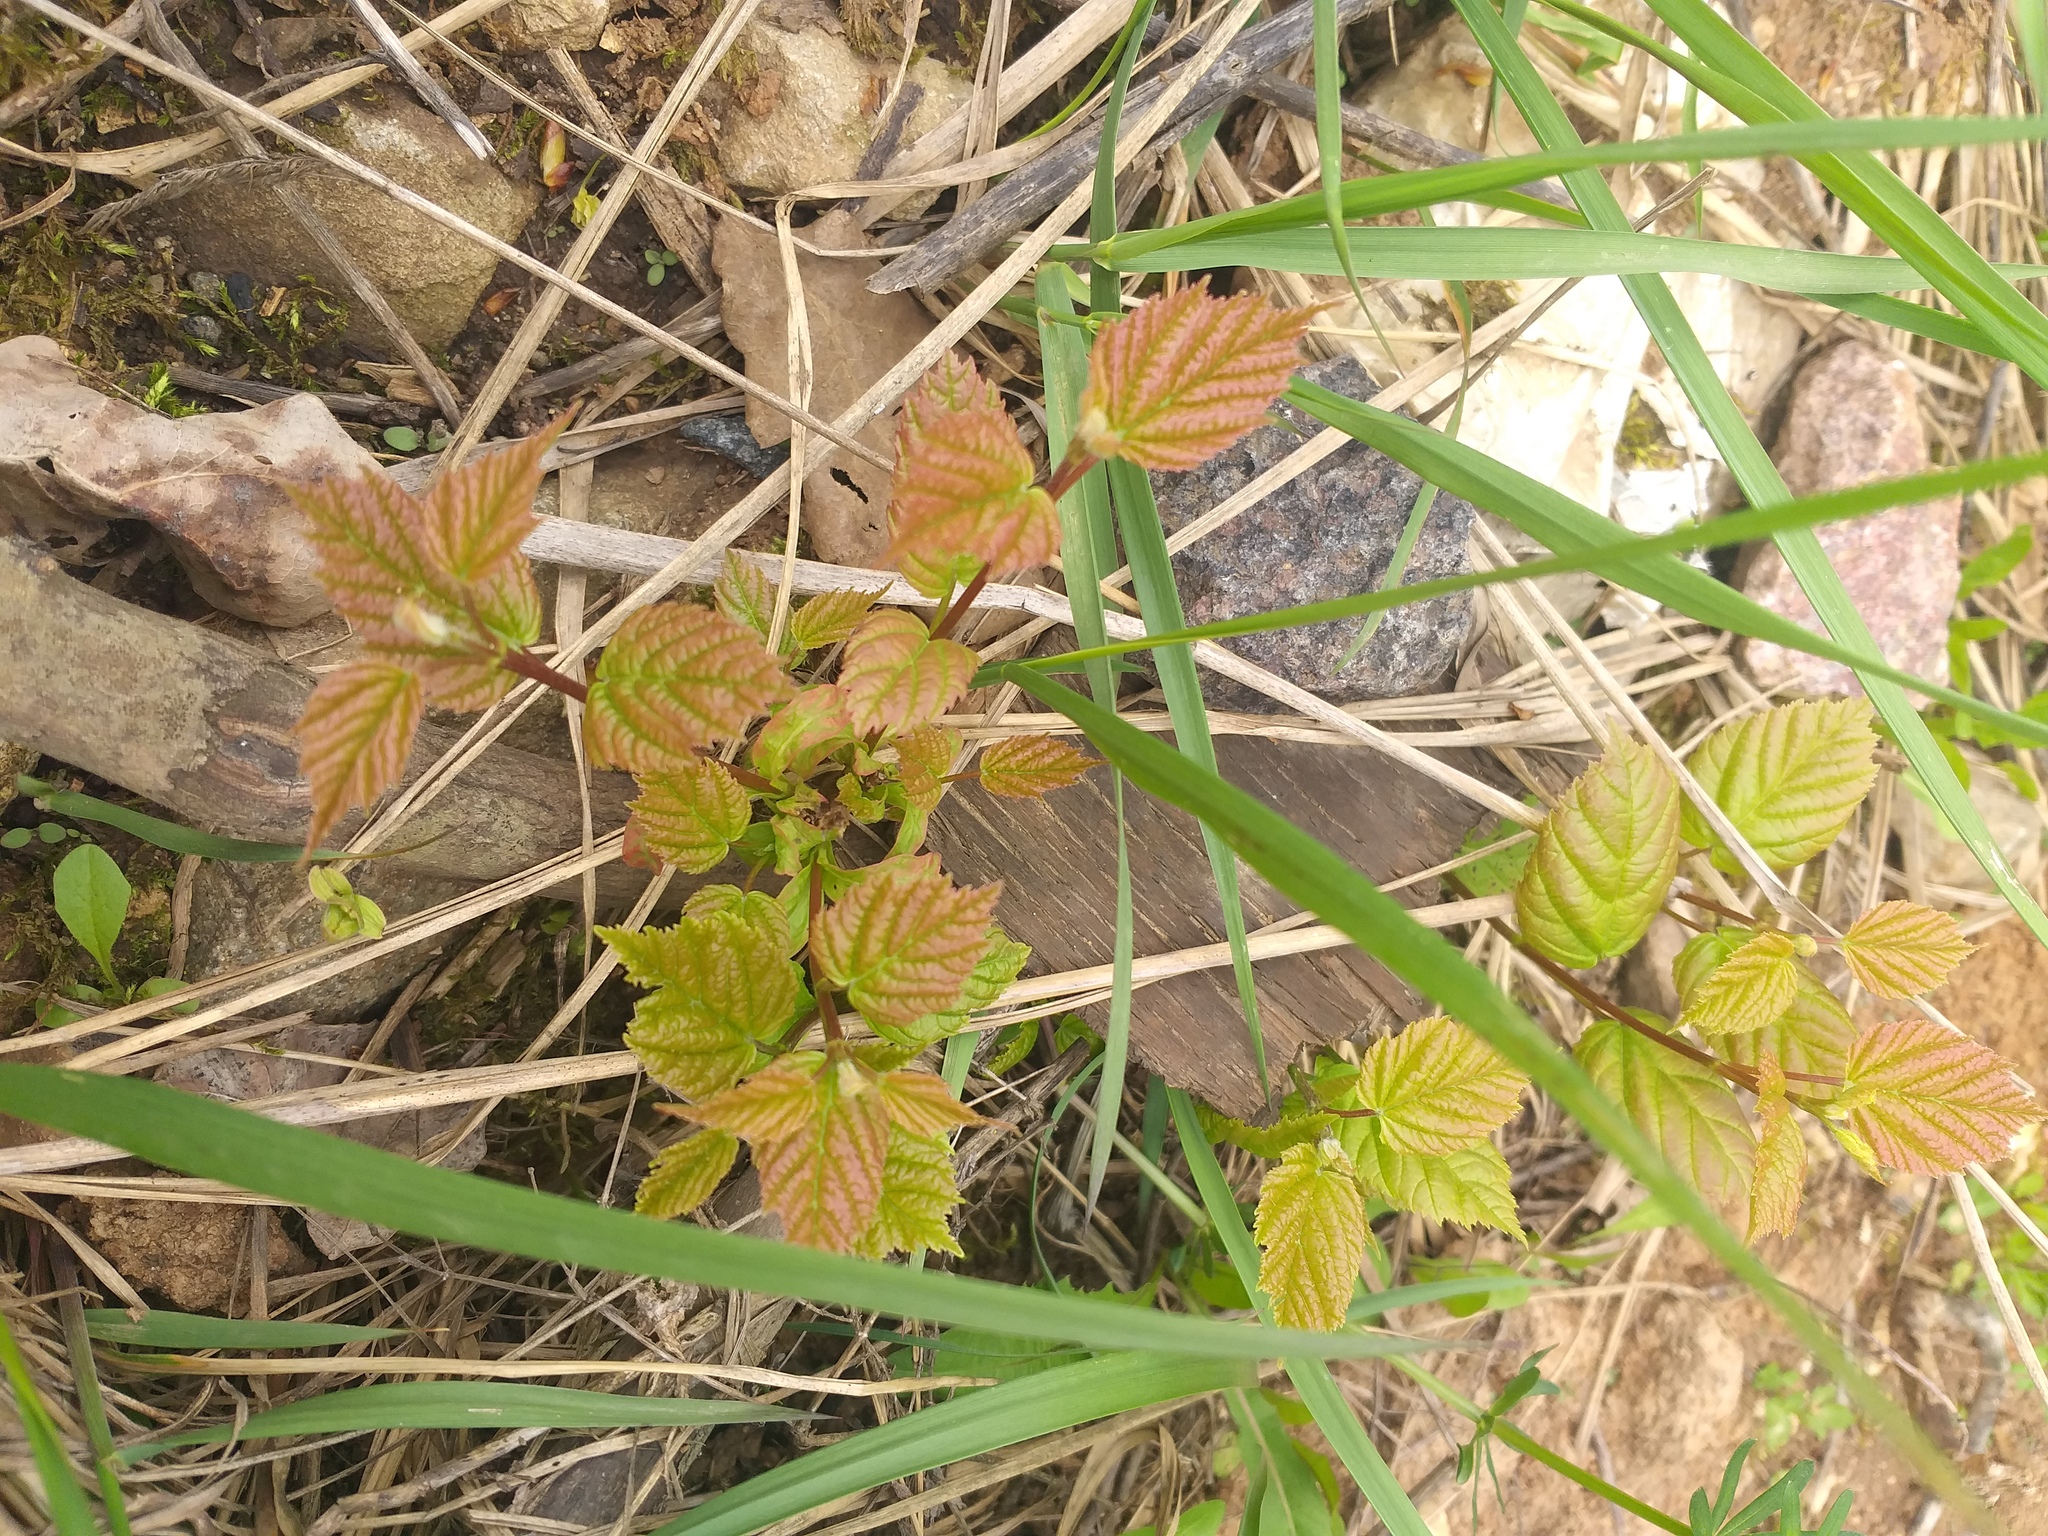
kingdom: Plantae
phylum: Tracheophyta
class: Magnoliopsida
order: Sapindales
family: Sapindaceae
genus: Acer
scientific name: Acer tataricum
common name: Tartar maple
